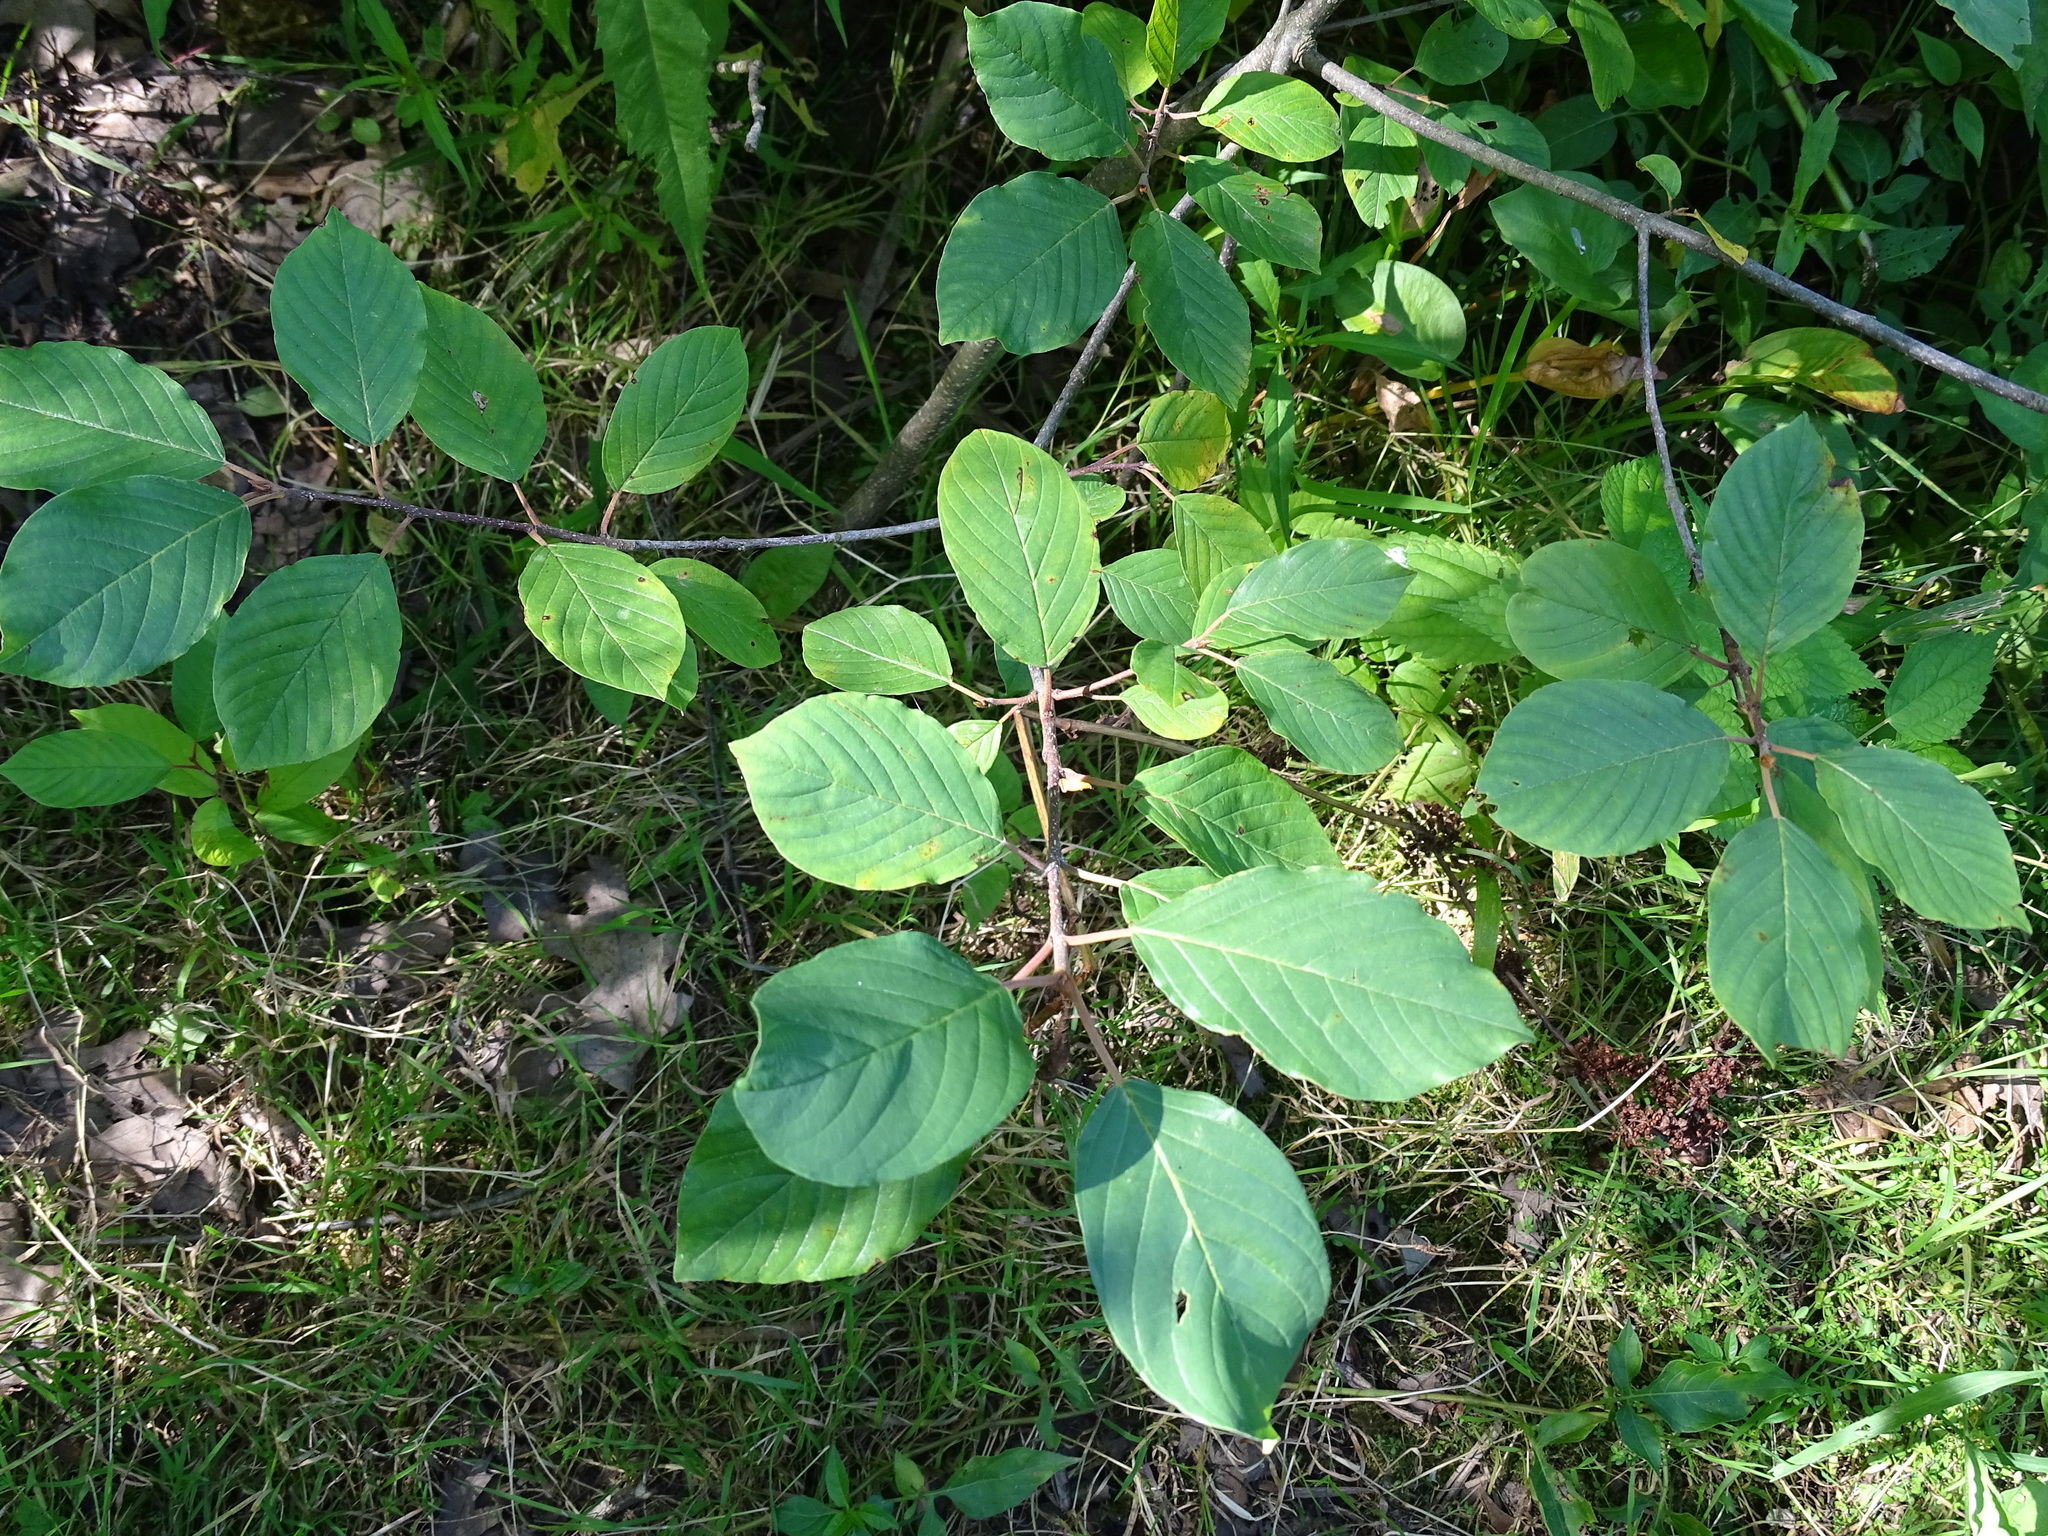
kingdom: Plantae
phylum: Tracheophyta
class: Magnoliopsida
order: Rosales
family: Rhamnaceae
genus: Frangula
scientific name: Frangula alnus
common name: Alder buckthorn
